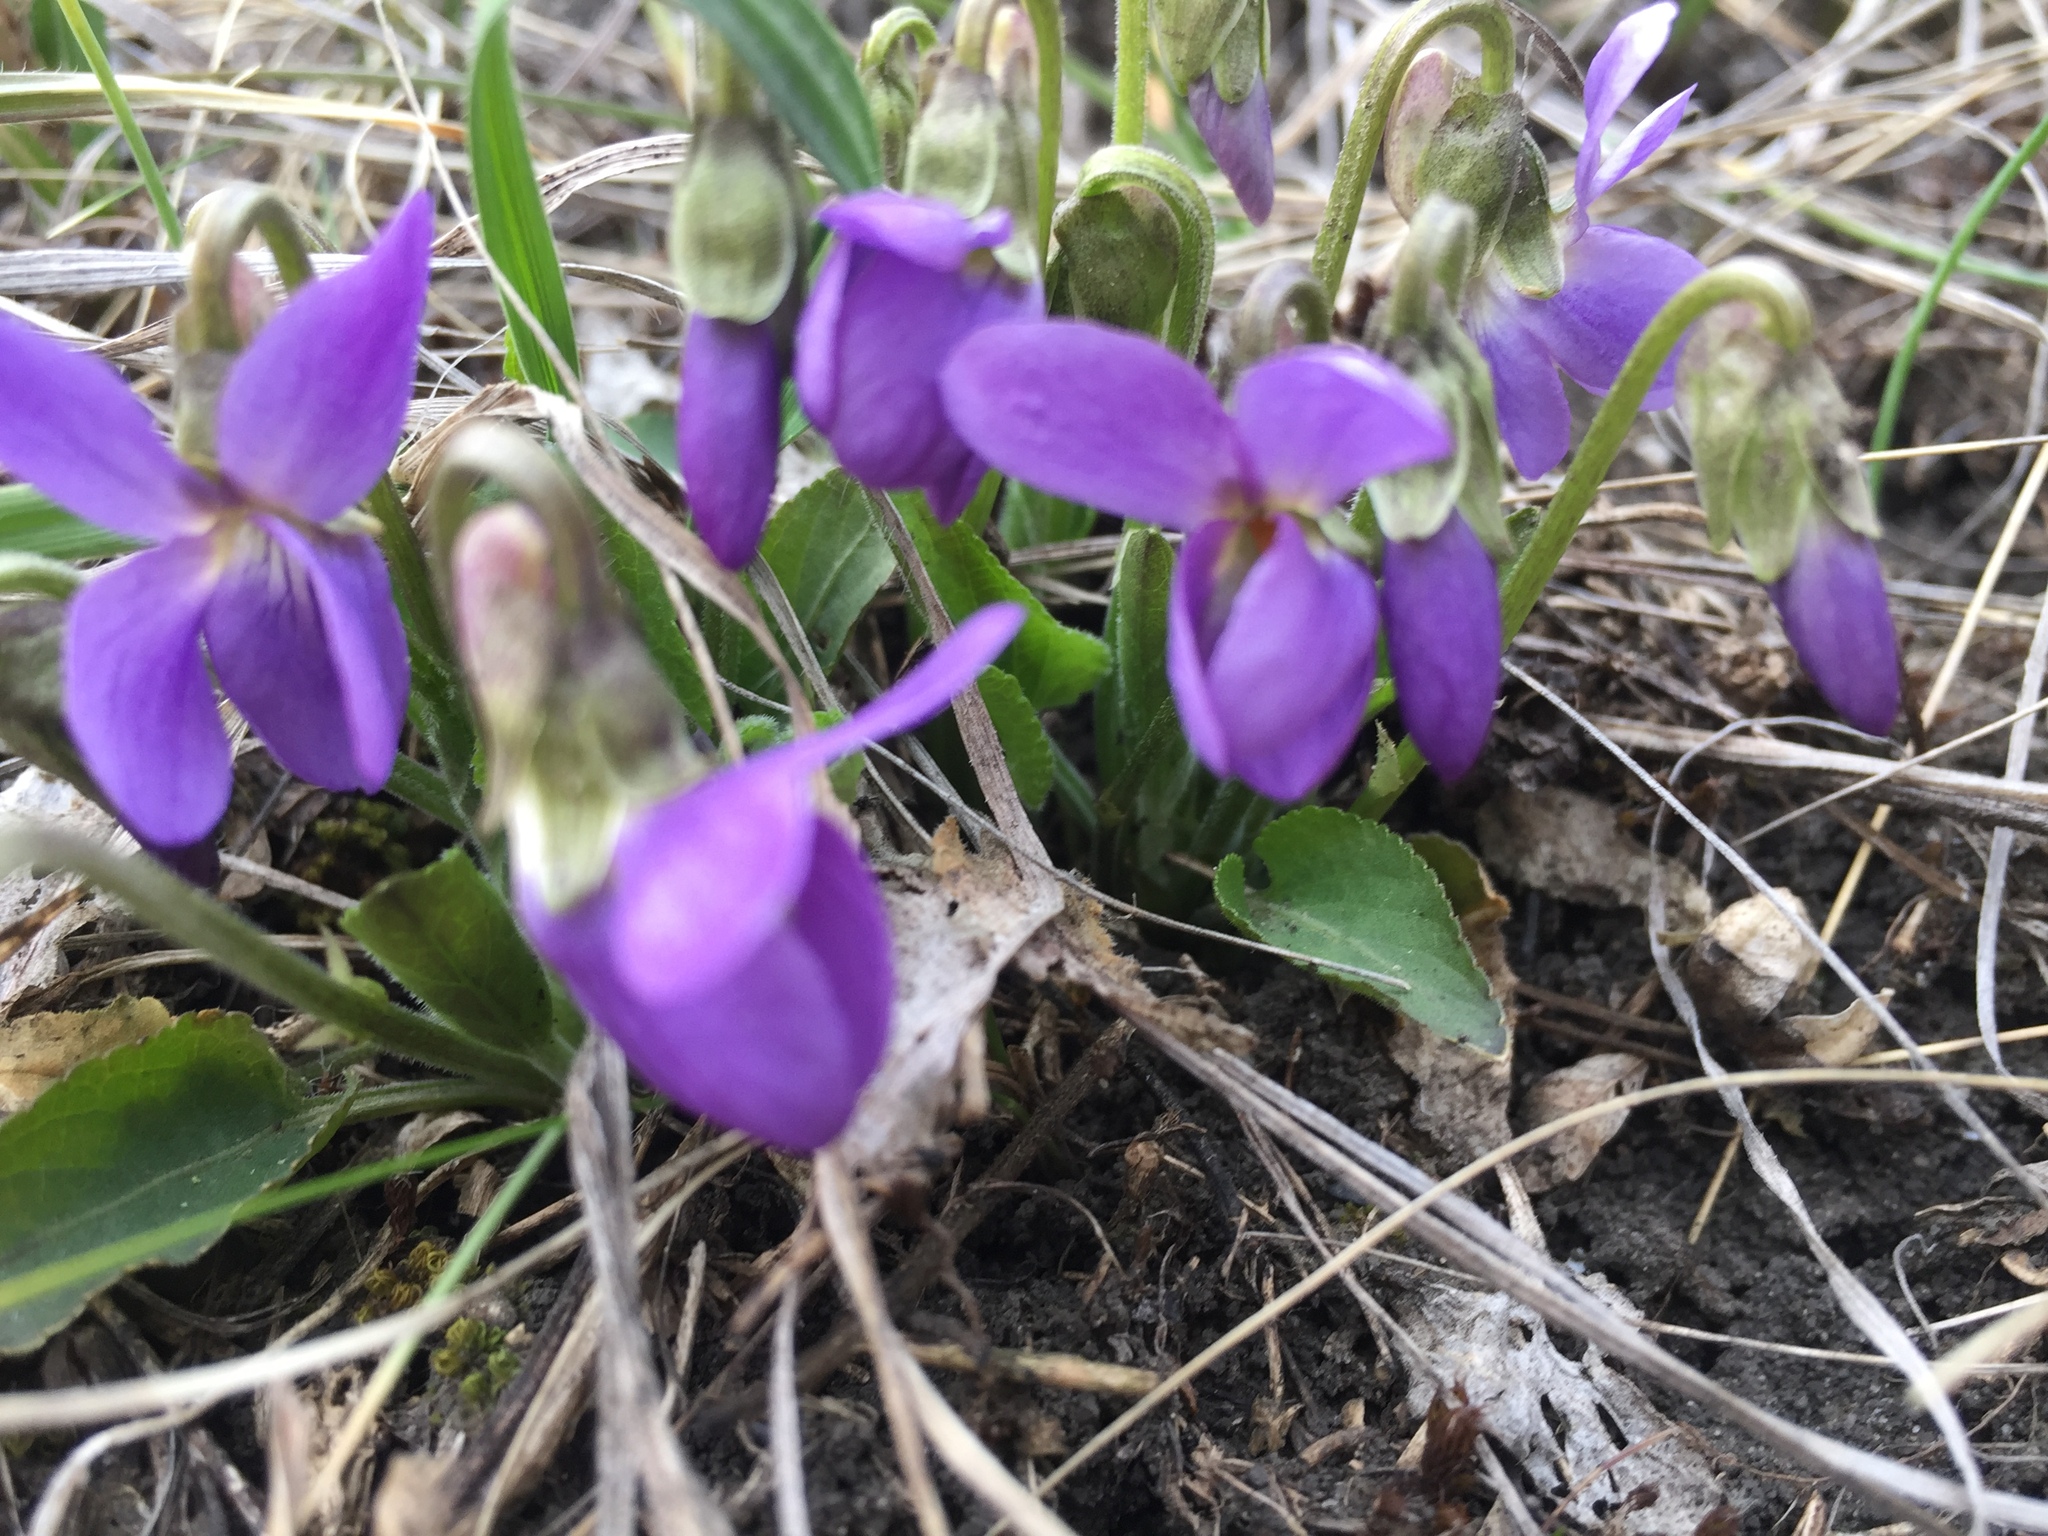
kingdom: Plantae
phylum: Tracheophyta
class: Magnoliopsida
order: Malpighiales
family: Violaceae
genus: Viola
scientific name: Viola ambigua
